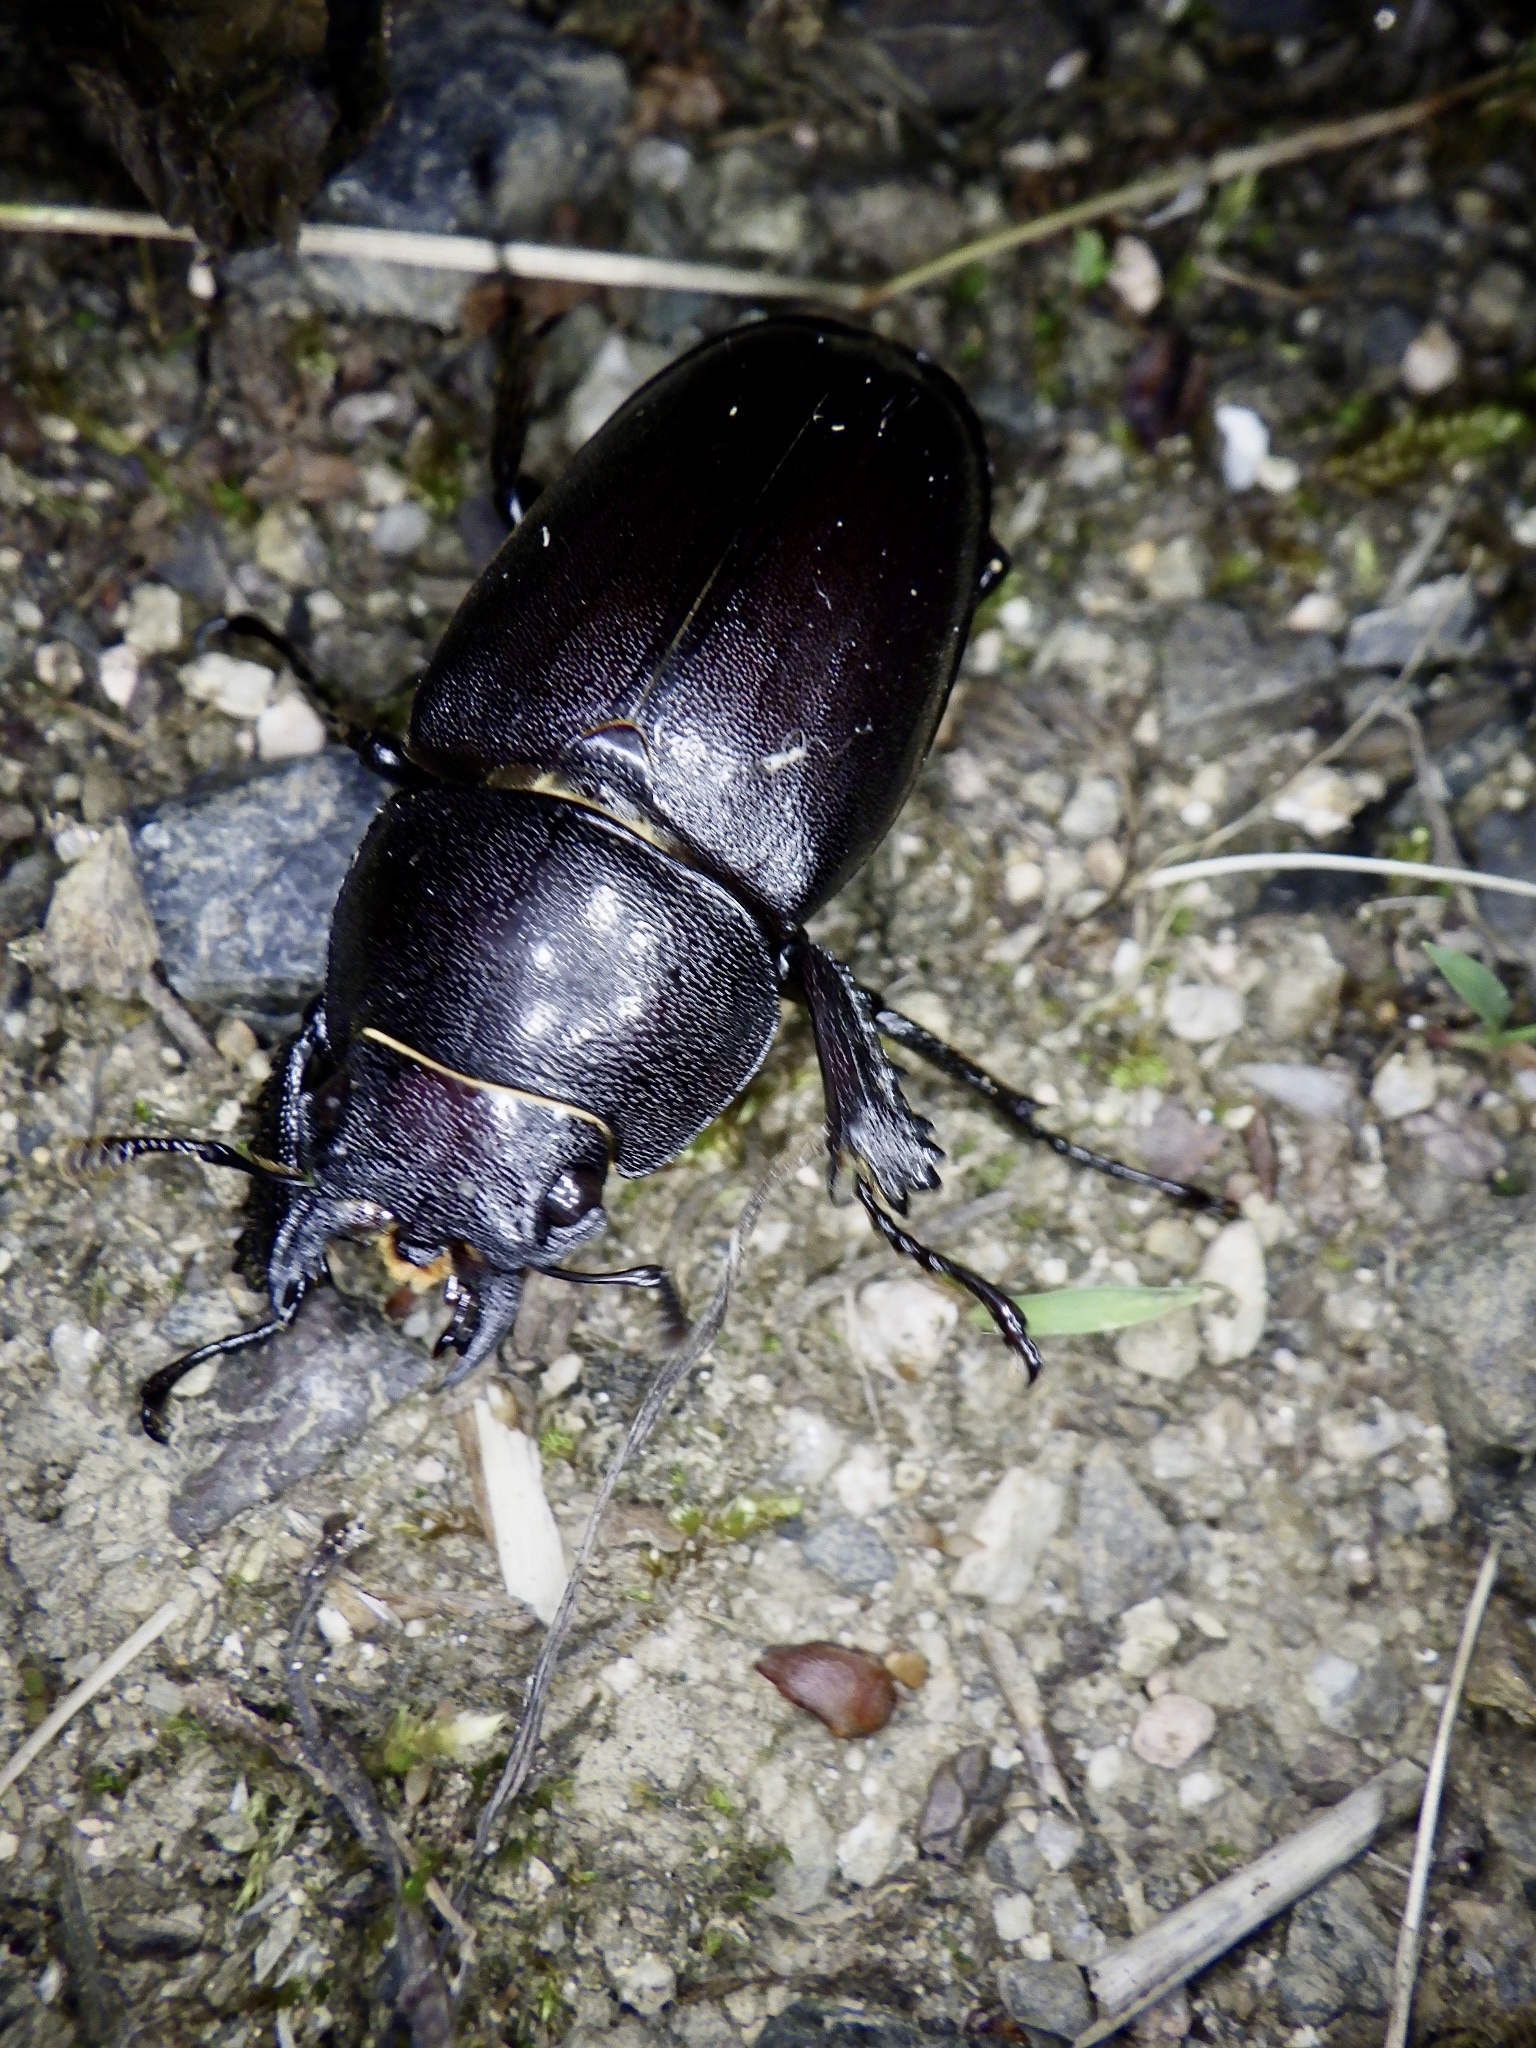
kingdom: Animalia
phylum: Arthropoda
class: Insecta
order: Coleoptera
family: Lucanidae
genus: Prosopocoilus
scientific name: Prosopocoilus inclinatus
